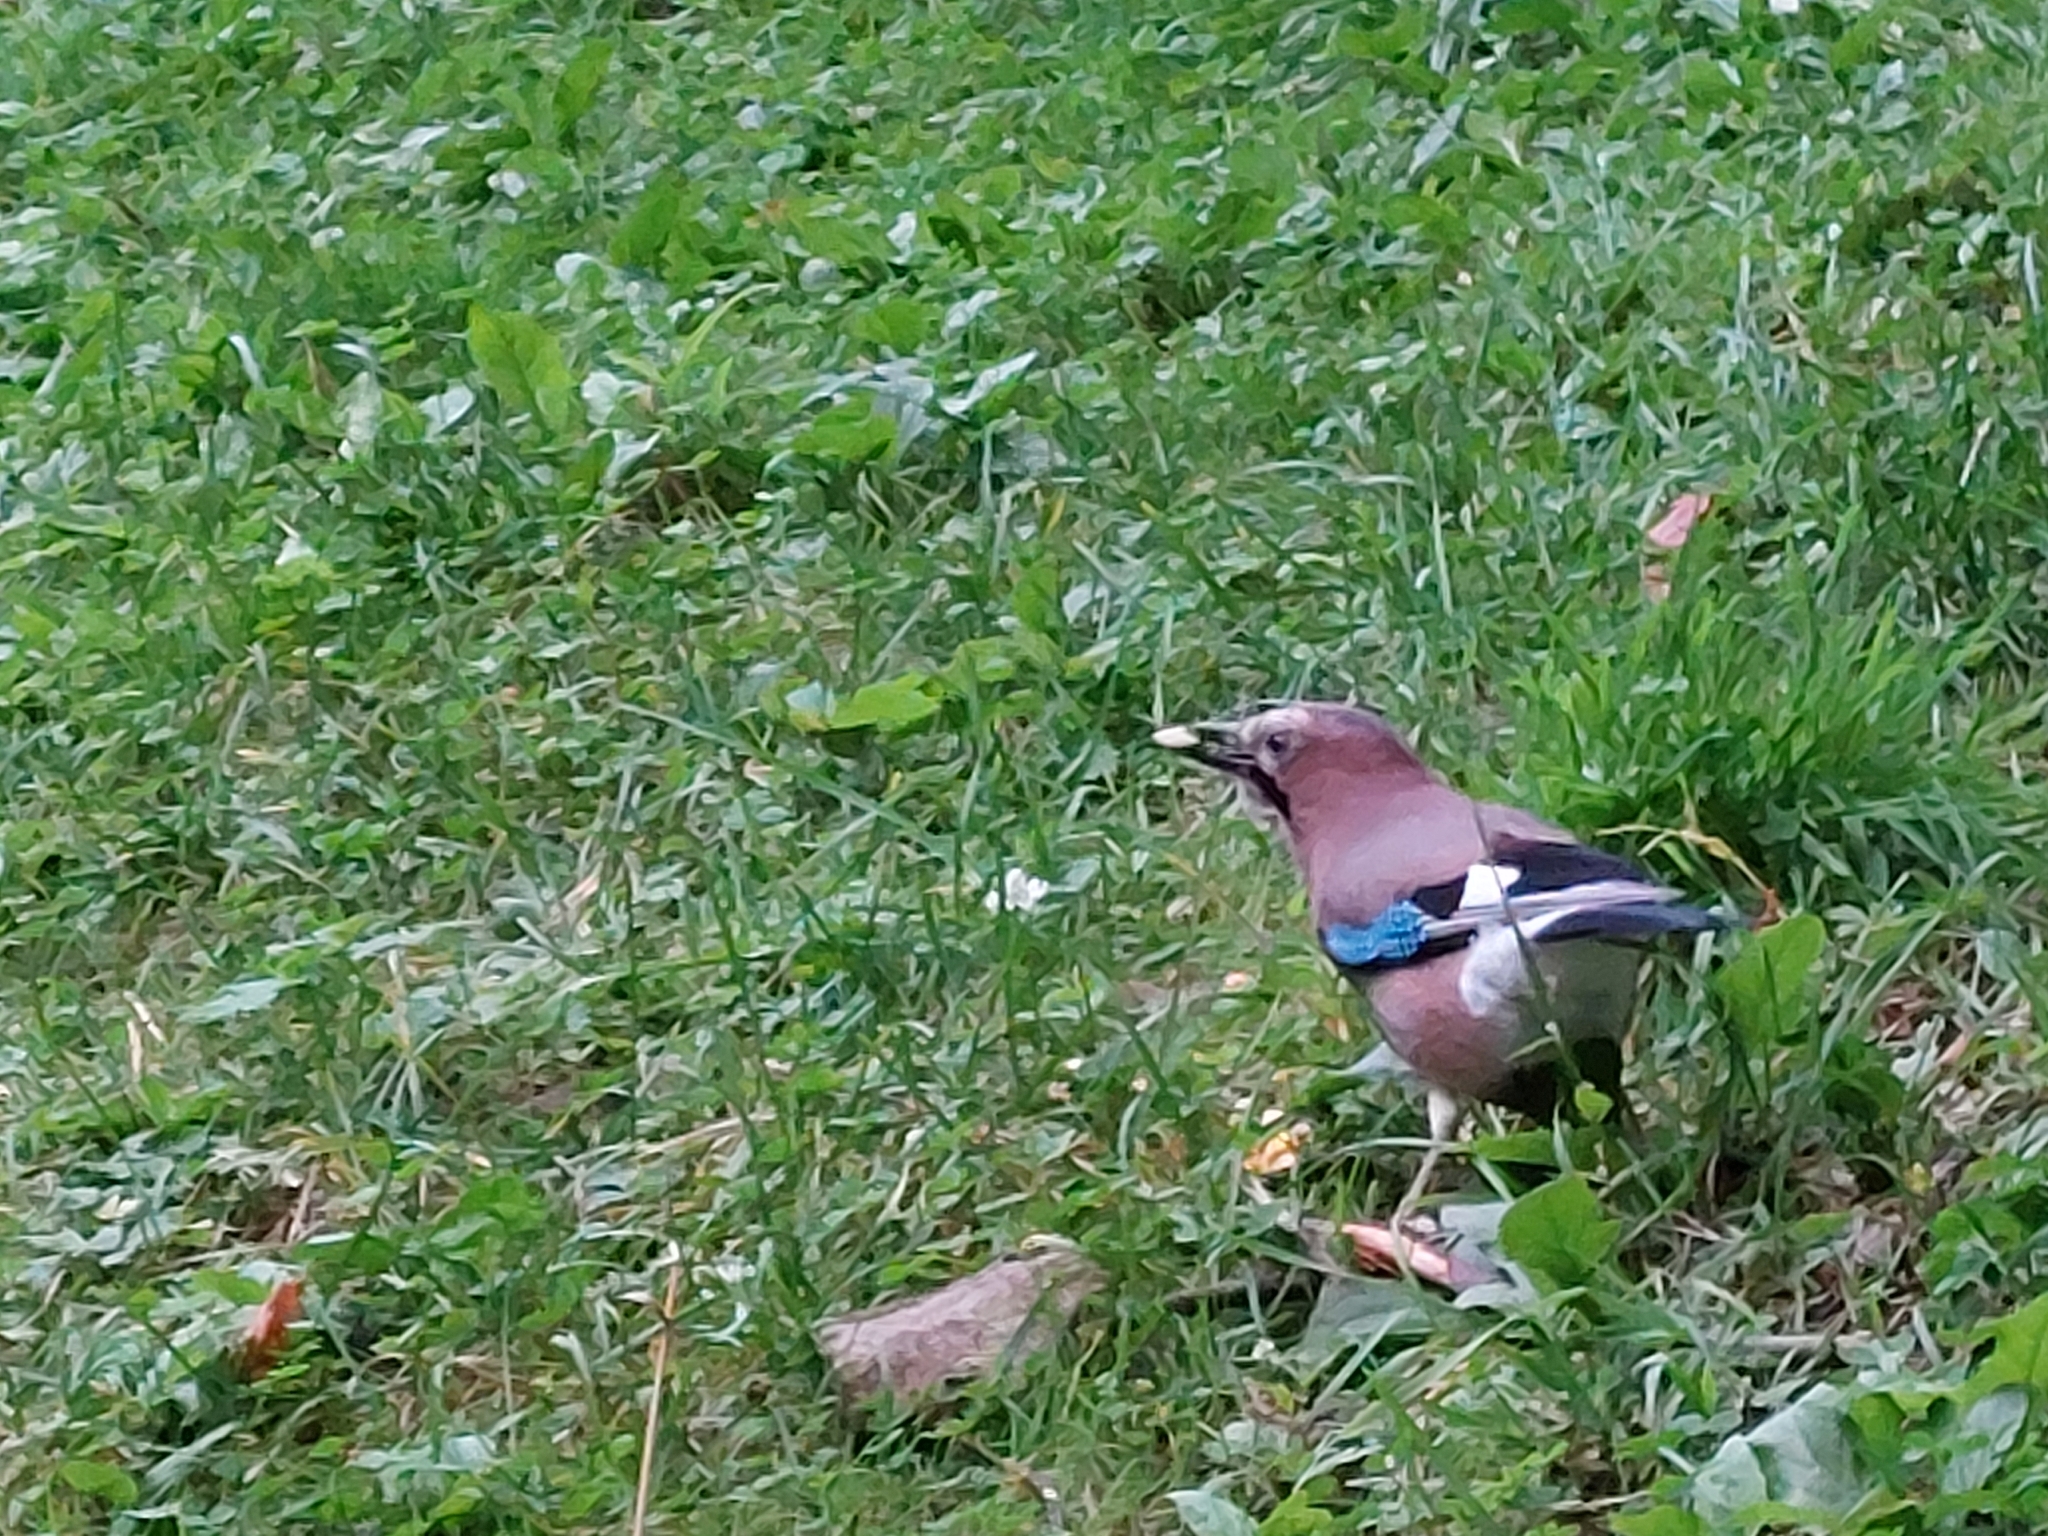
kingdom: Animalia
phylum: Chordata
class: Aves
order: Passeriformes
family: Corvidae
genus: Garrulus
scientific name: Garrulus glandarius
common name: Eurasian jay
